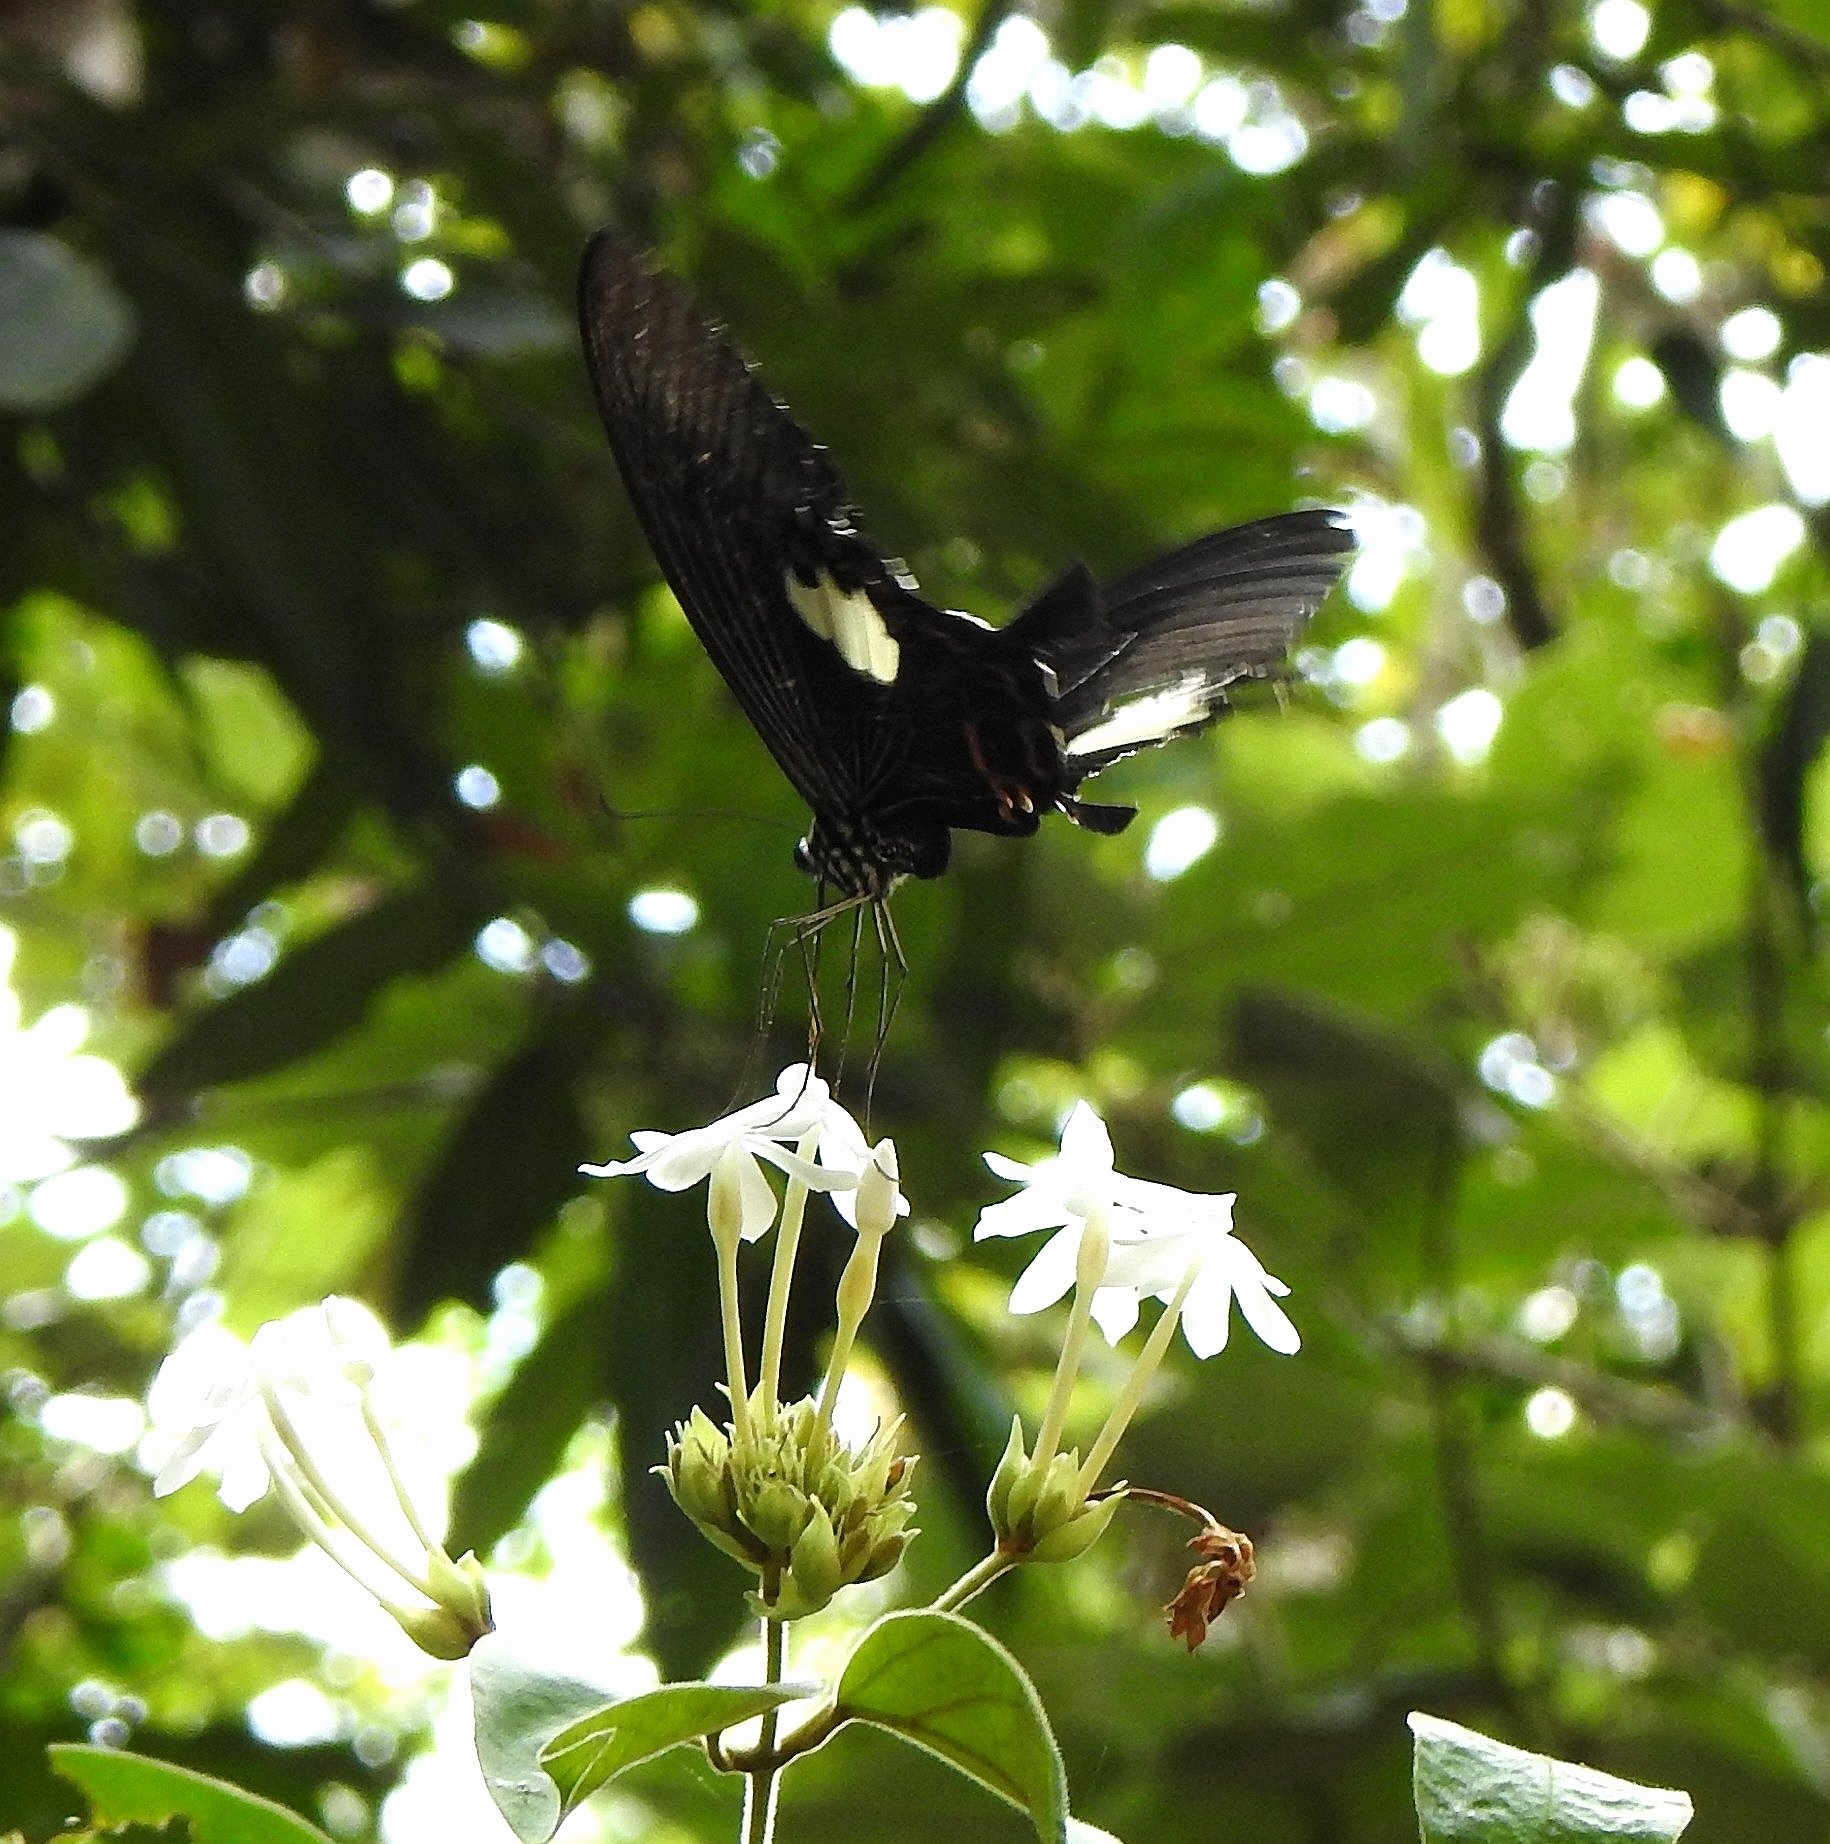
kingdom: Animalia
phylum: Arthropoda
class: Insecta
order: Lepidoptera
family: Papilionidae
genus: Papilio
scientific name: Papilio helenus
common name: Red helen
